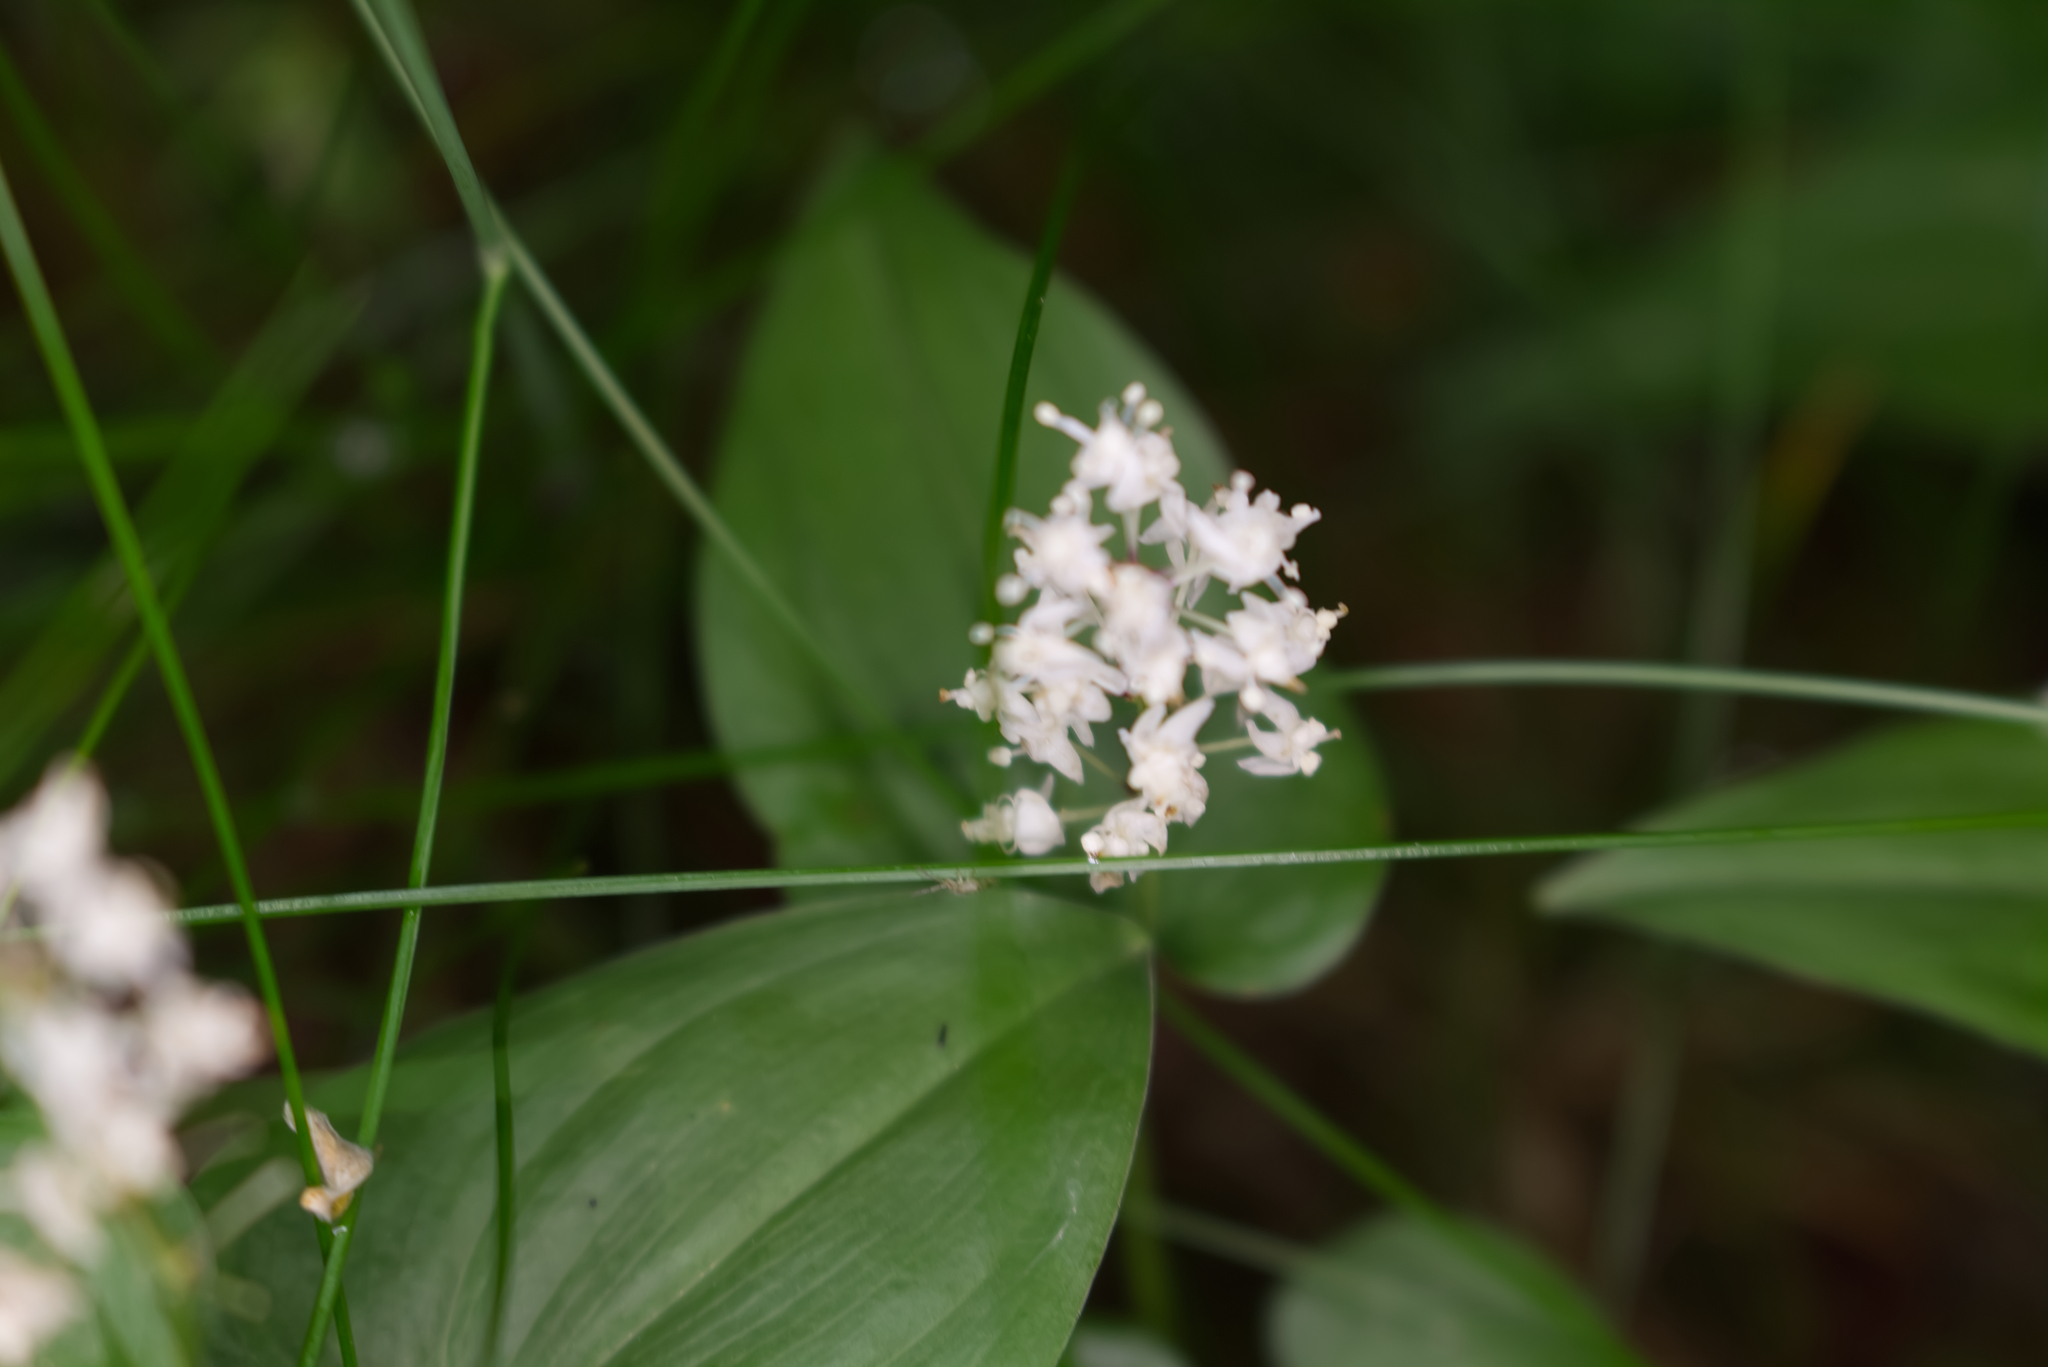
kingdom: Plantae
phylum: Tracheophyta
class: Liliopsida
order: Asparagales
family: Asparagaceae
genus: Maianthemum
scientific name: Maianthemum bifolium
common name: May lily
